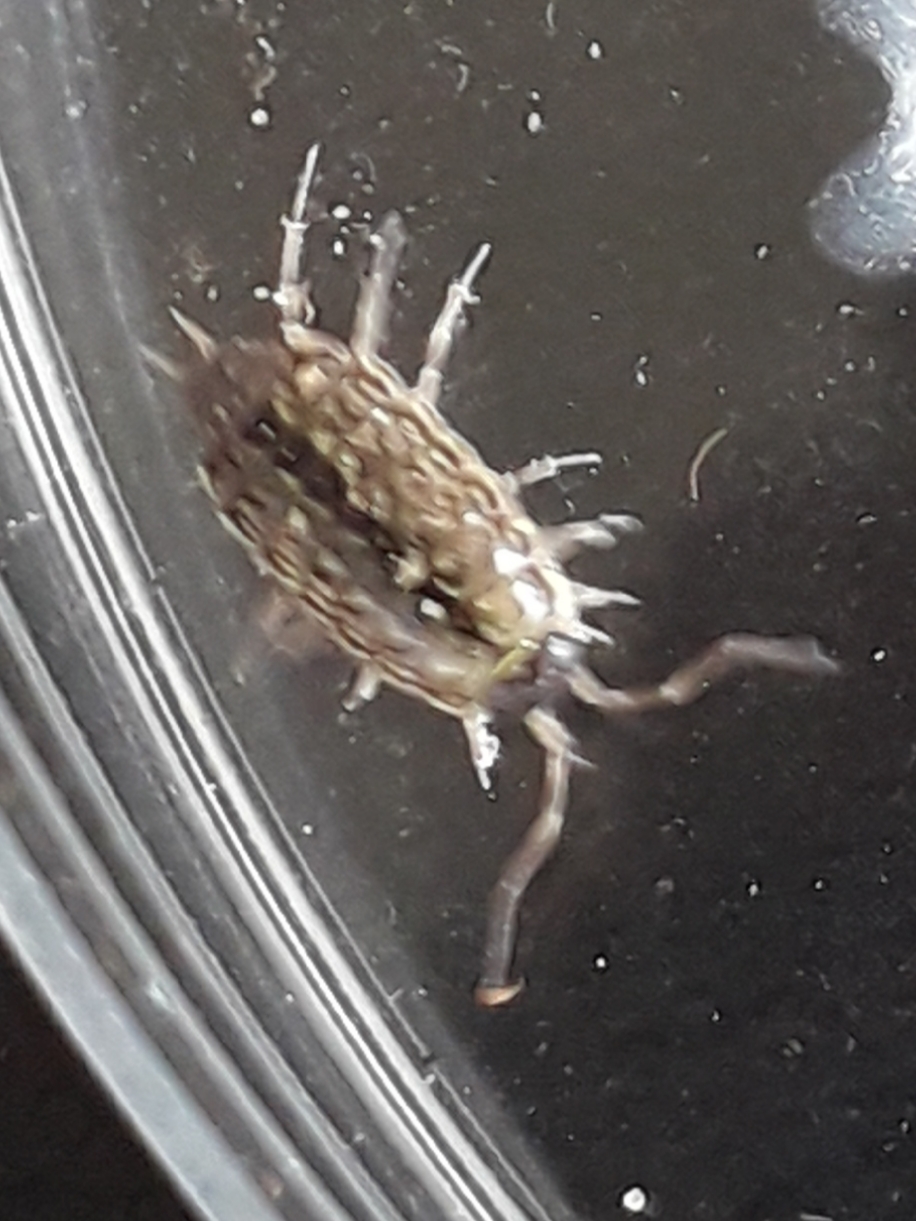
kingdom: Animalia
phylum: Arthropoda
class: Malacostraca
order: Isopoda
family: Philosciidae
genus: Philoscia
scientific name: Philoscia muscorum
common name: Common striped woodlouse
